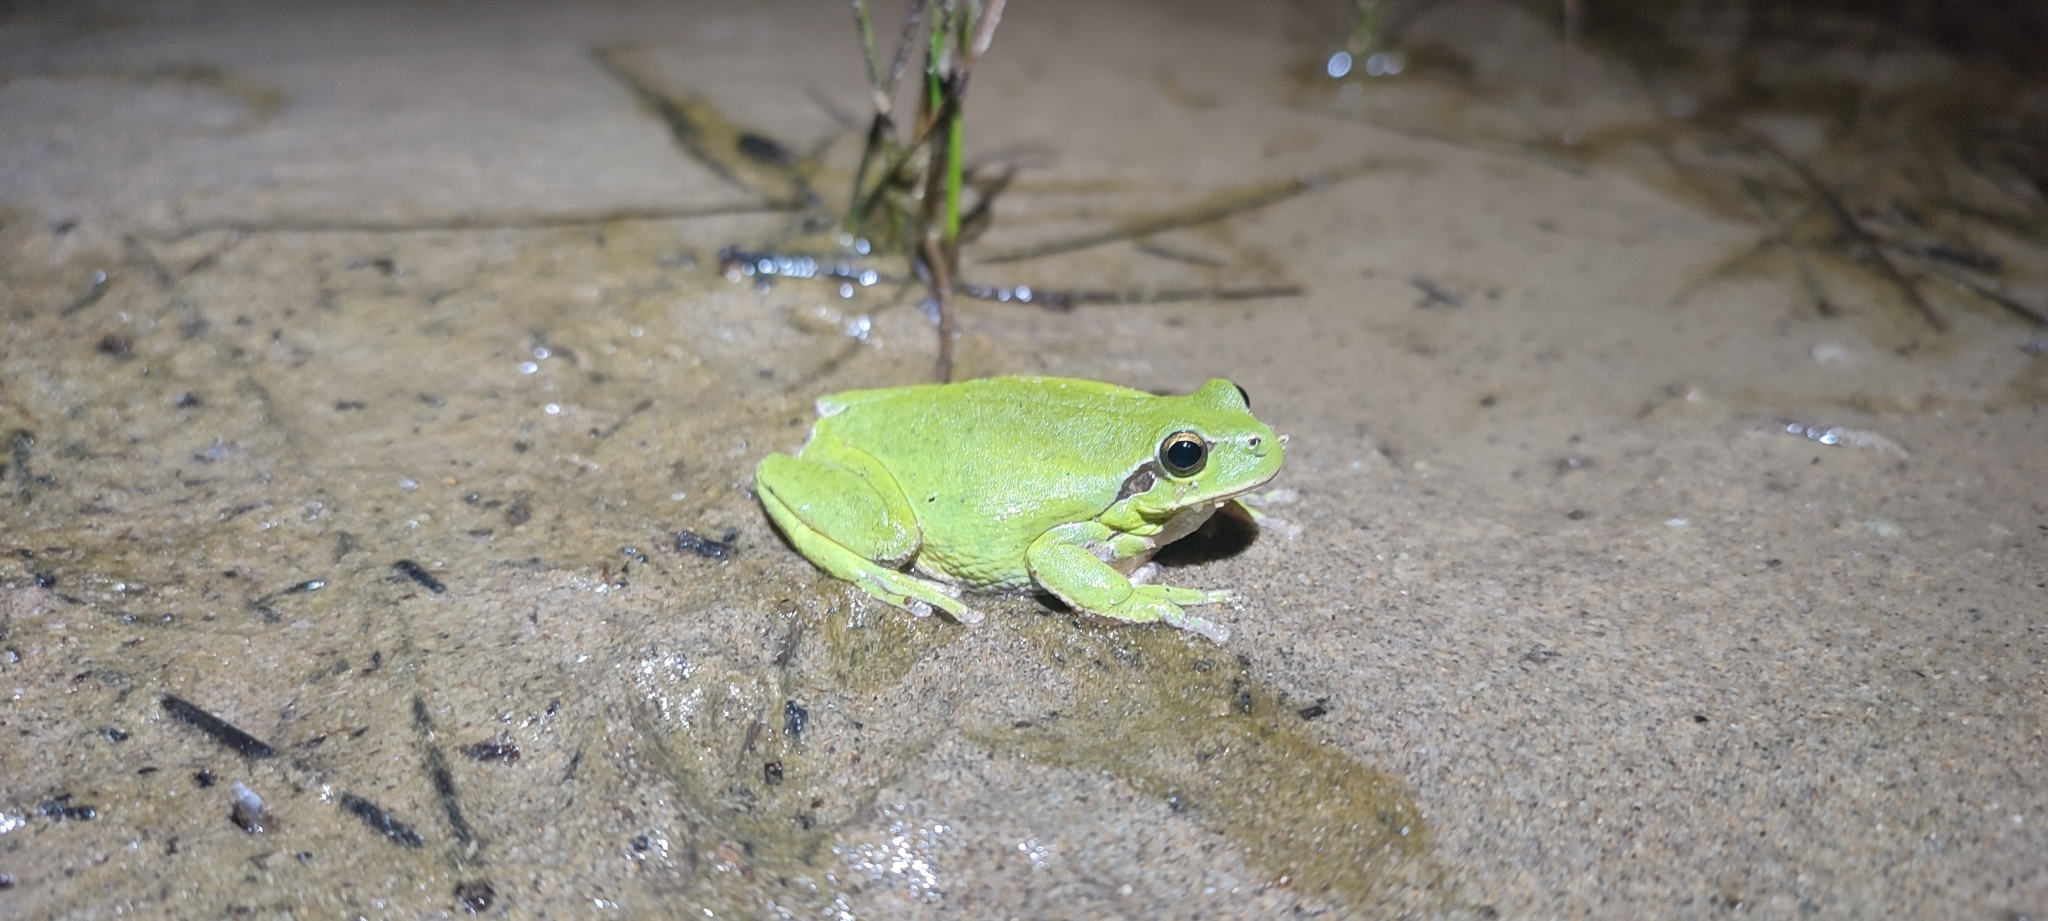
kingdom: Animalia
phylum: Chordata
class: Amphibia
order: Anura
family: Hylidae
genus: Hyla
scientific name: Hyla meridionalis
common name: Stripeless tree frog
